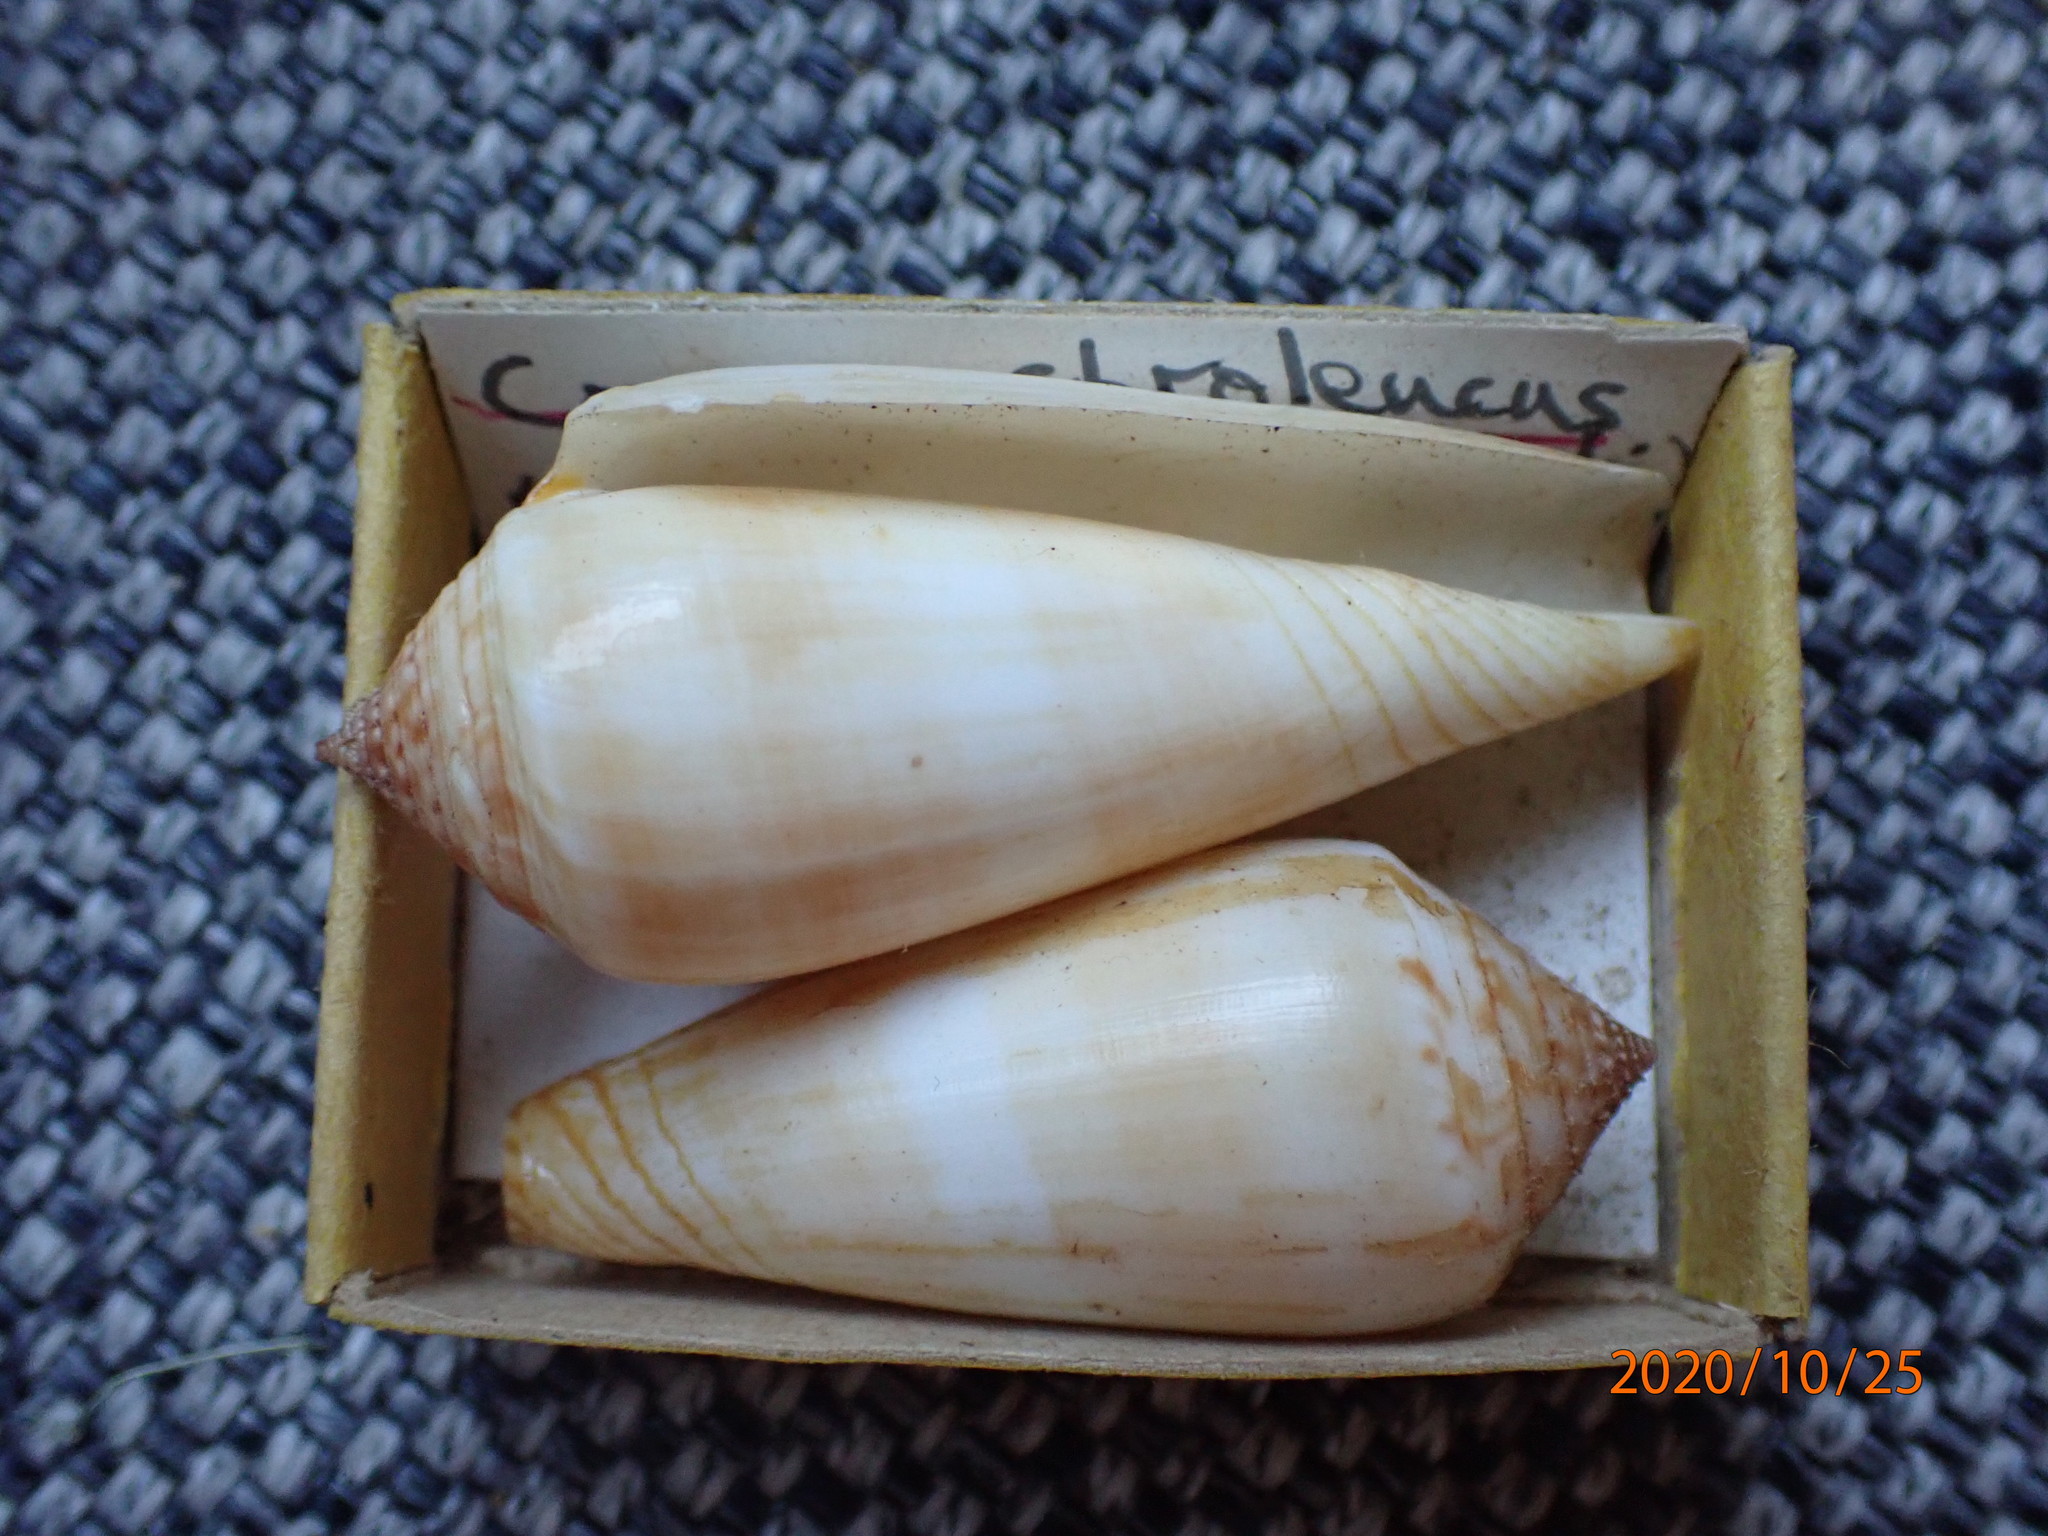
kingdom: Animalia
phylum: Mollusca
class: Gastropoda
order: Neogastropoda
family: Conidae
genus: Conus
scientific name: Conus ochroleucus
